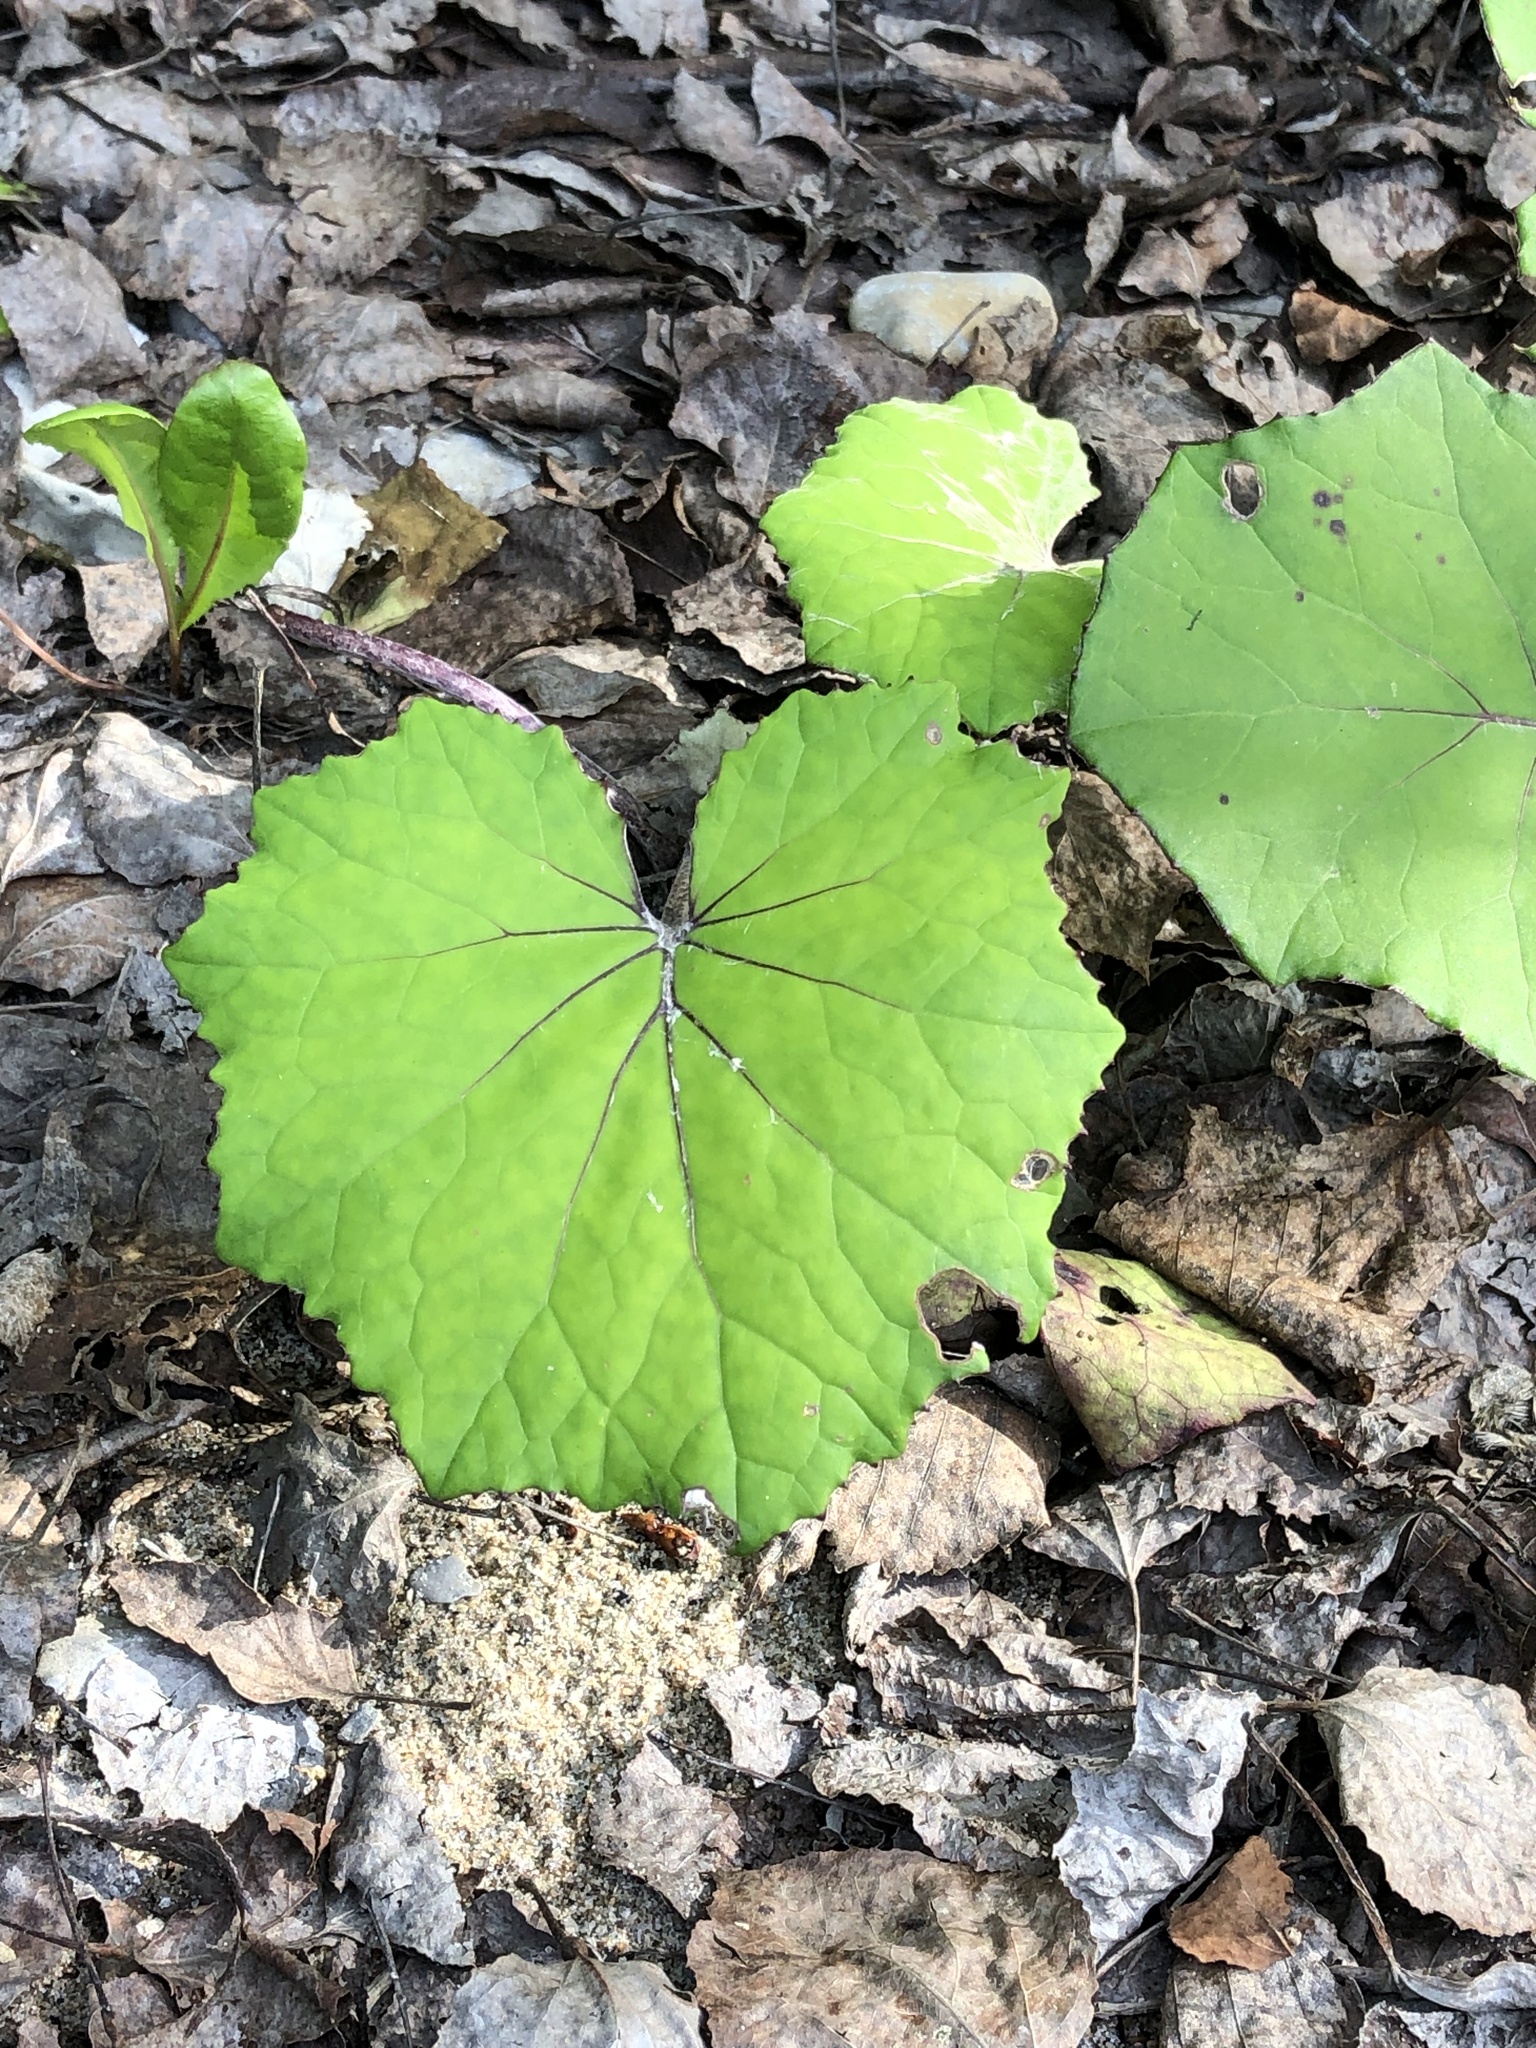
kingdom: Plantae
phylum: Tracheophyta
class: Magnoliopsida
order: Asterales
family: Asteraceae
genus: Tussilago
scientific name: Tussilago farfara
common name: Coltsfoot
